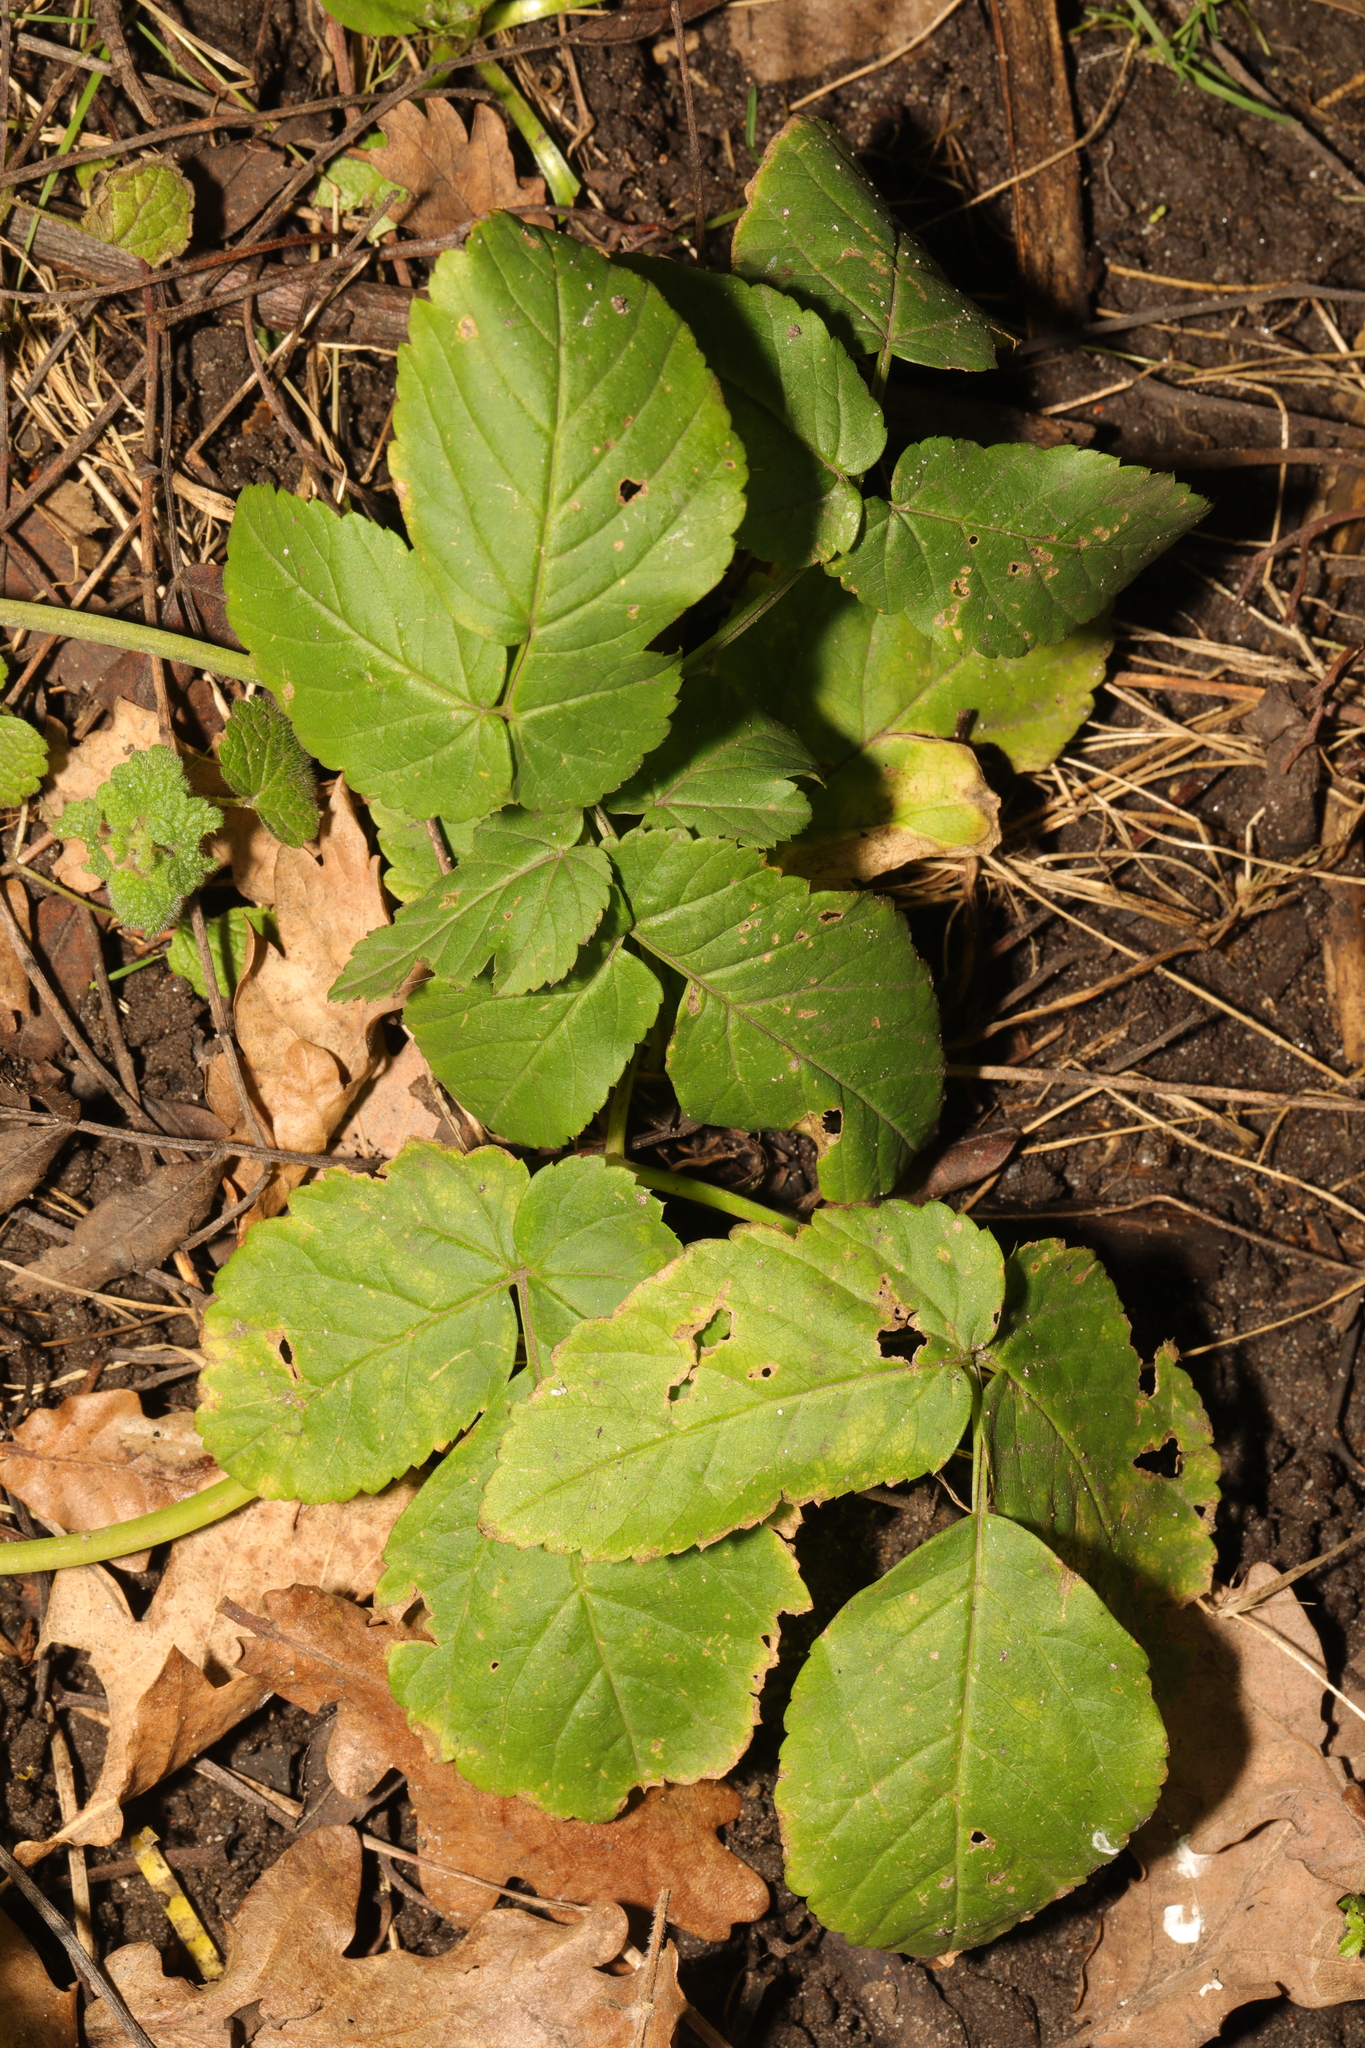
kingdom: Plantae
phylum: Tracheophyta
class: Magnoliopsida
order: Apiales
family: Apiaceae
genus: Aegopodium
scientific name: Aegopodium podagraria
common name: Ground-elder
